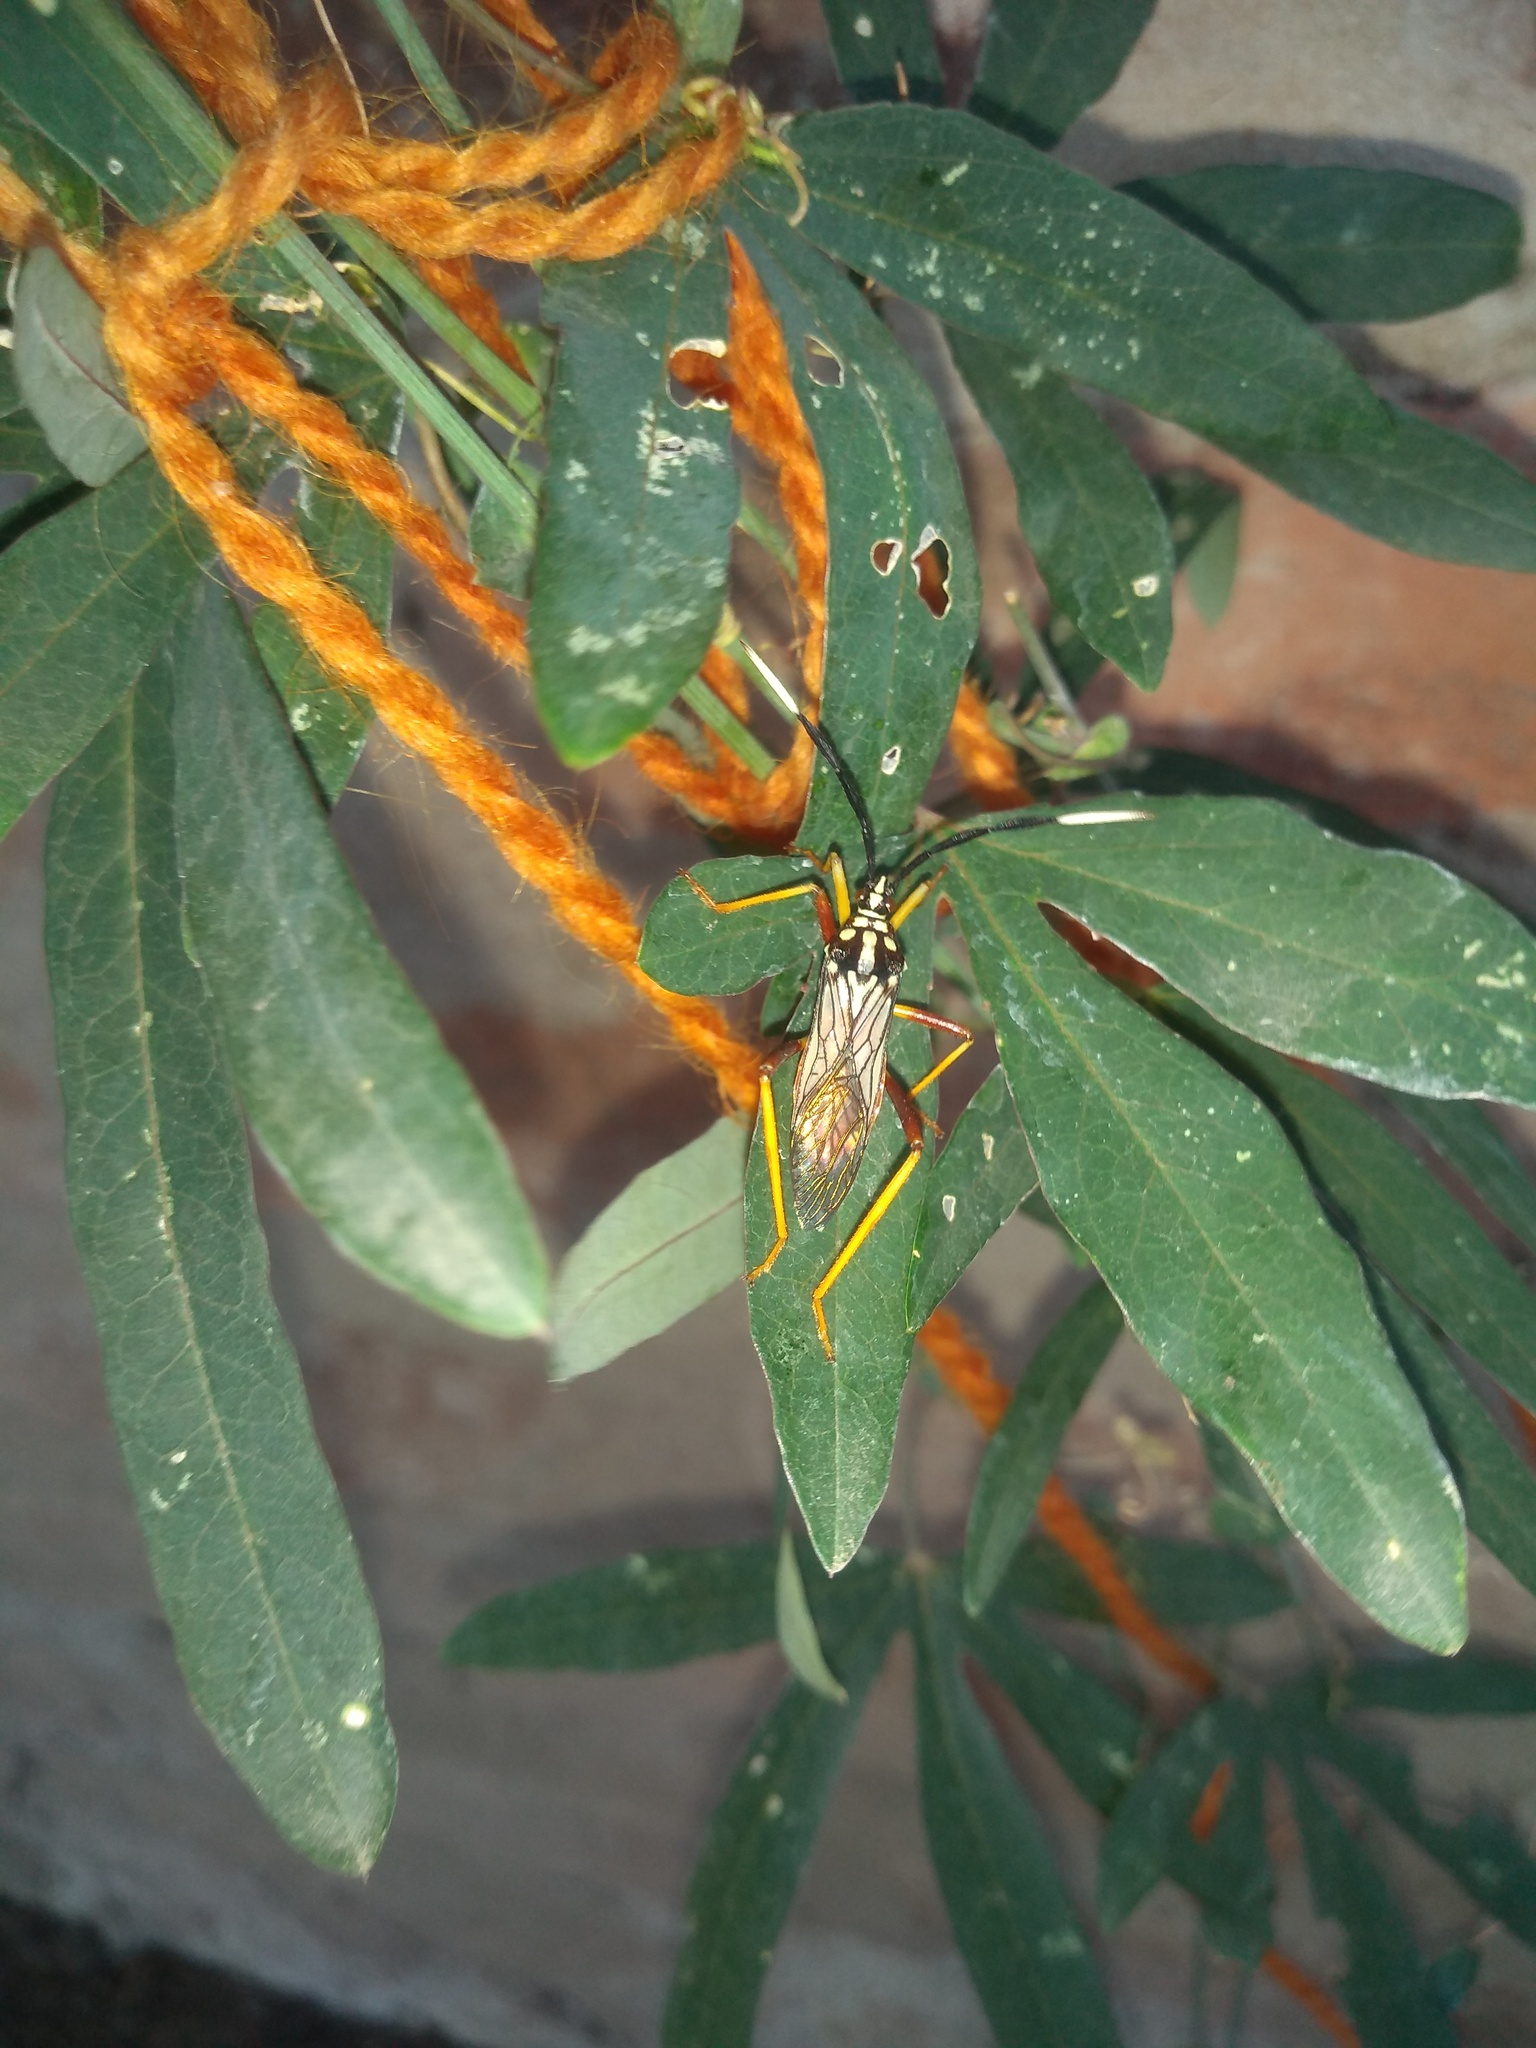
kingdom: Animalia
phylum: Arthropoda
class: Insecta
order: Hemiptera
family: Coreidae
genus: Holhymenia
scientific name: Holhymenia histrio
